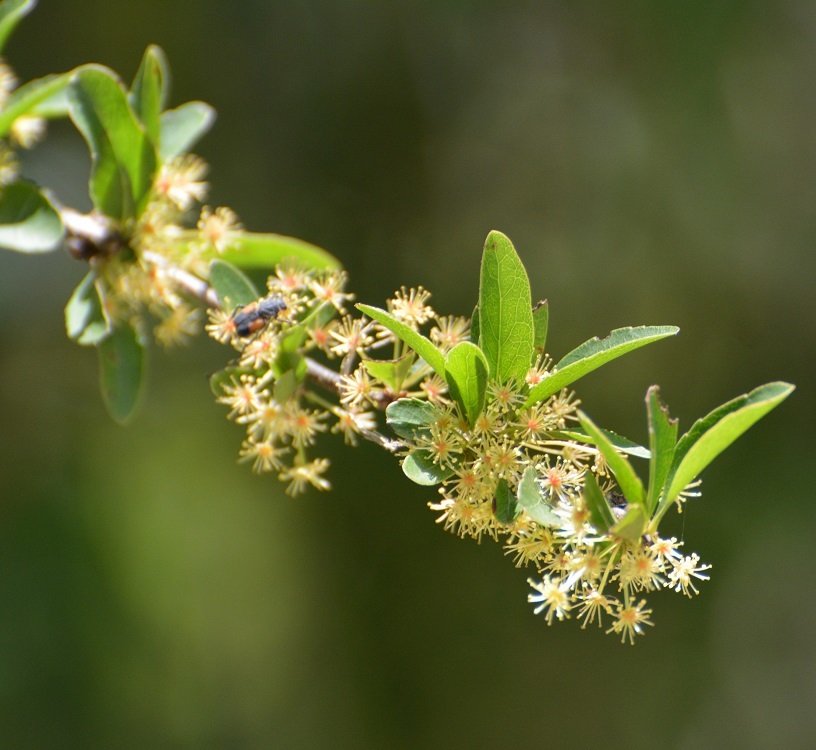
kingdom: Plantae
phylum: Tracheophyta
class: Magnoliopsida
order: Malpighiales
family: Salicaceae
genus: Xylosma
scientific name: Xylosma intermedia
